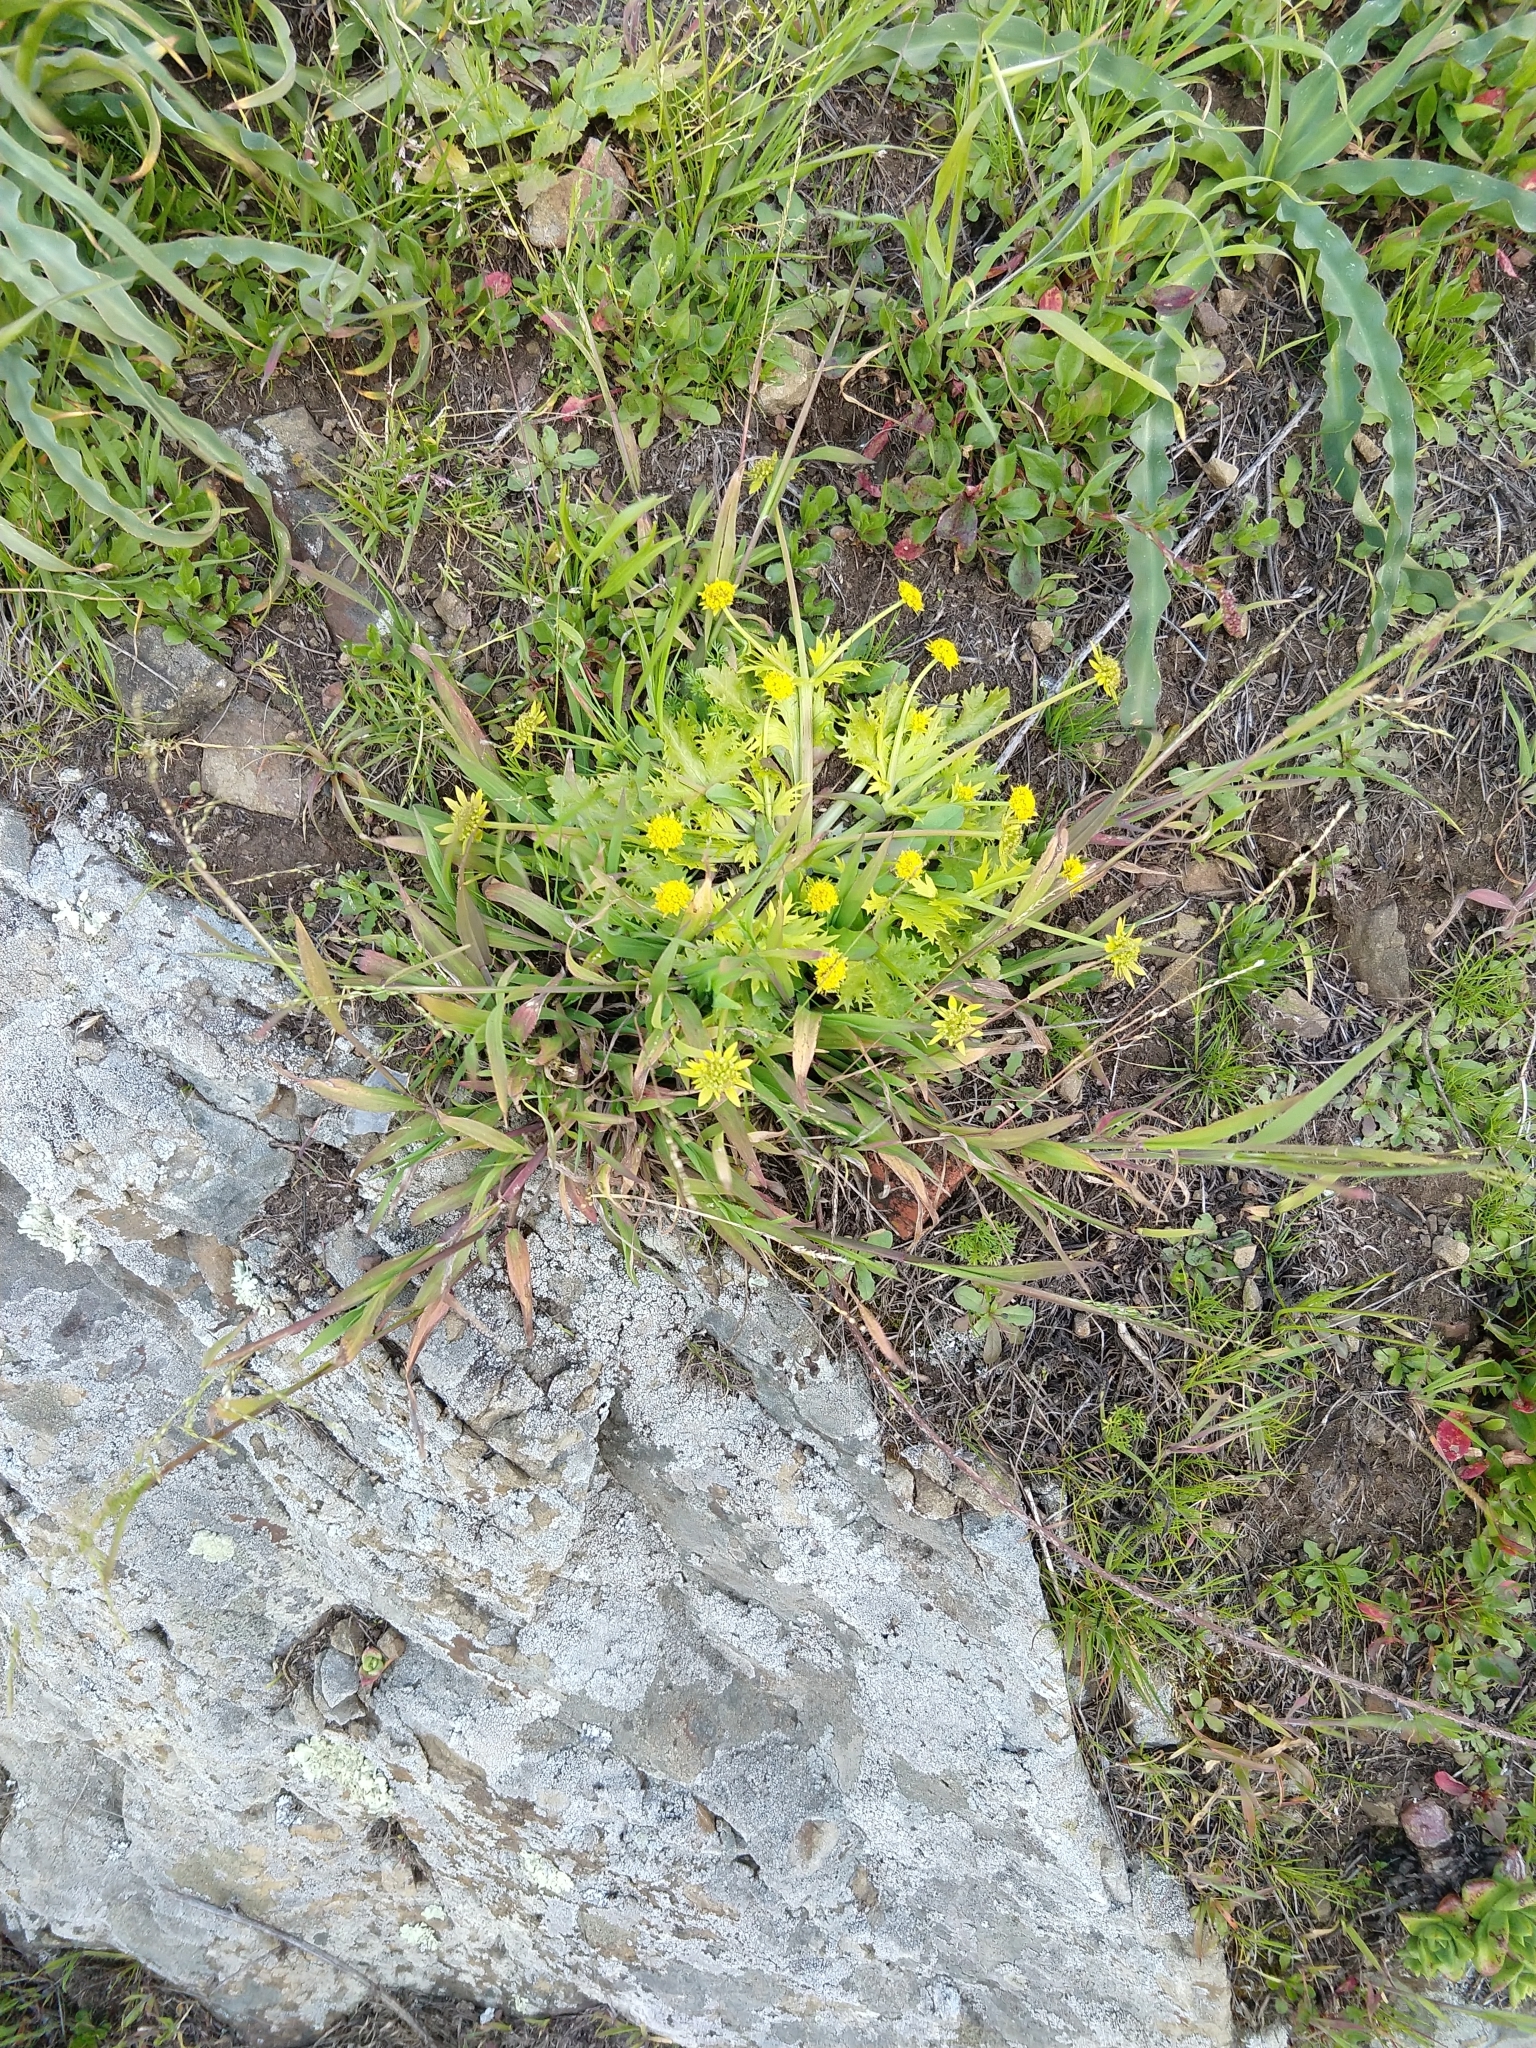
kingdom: Plantae
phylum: Tracheophyta
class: Magnoliopsida
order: Apiales
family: Apiaceae
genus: Sanicula
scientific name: Sanicula arctopoides
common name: Footsteps-of-spring
